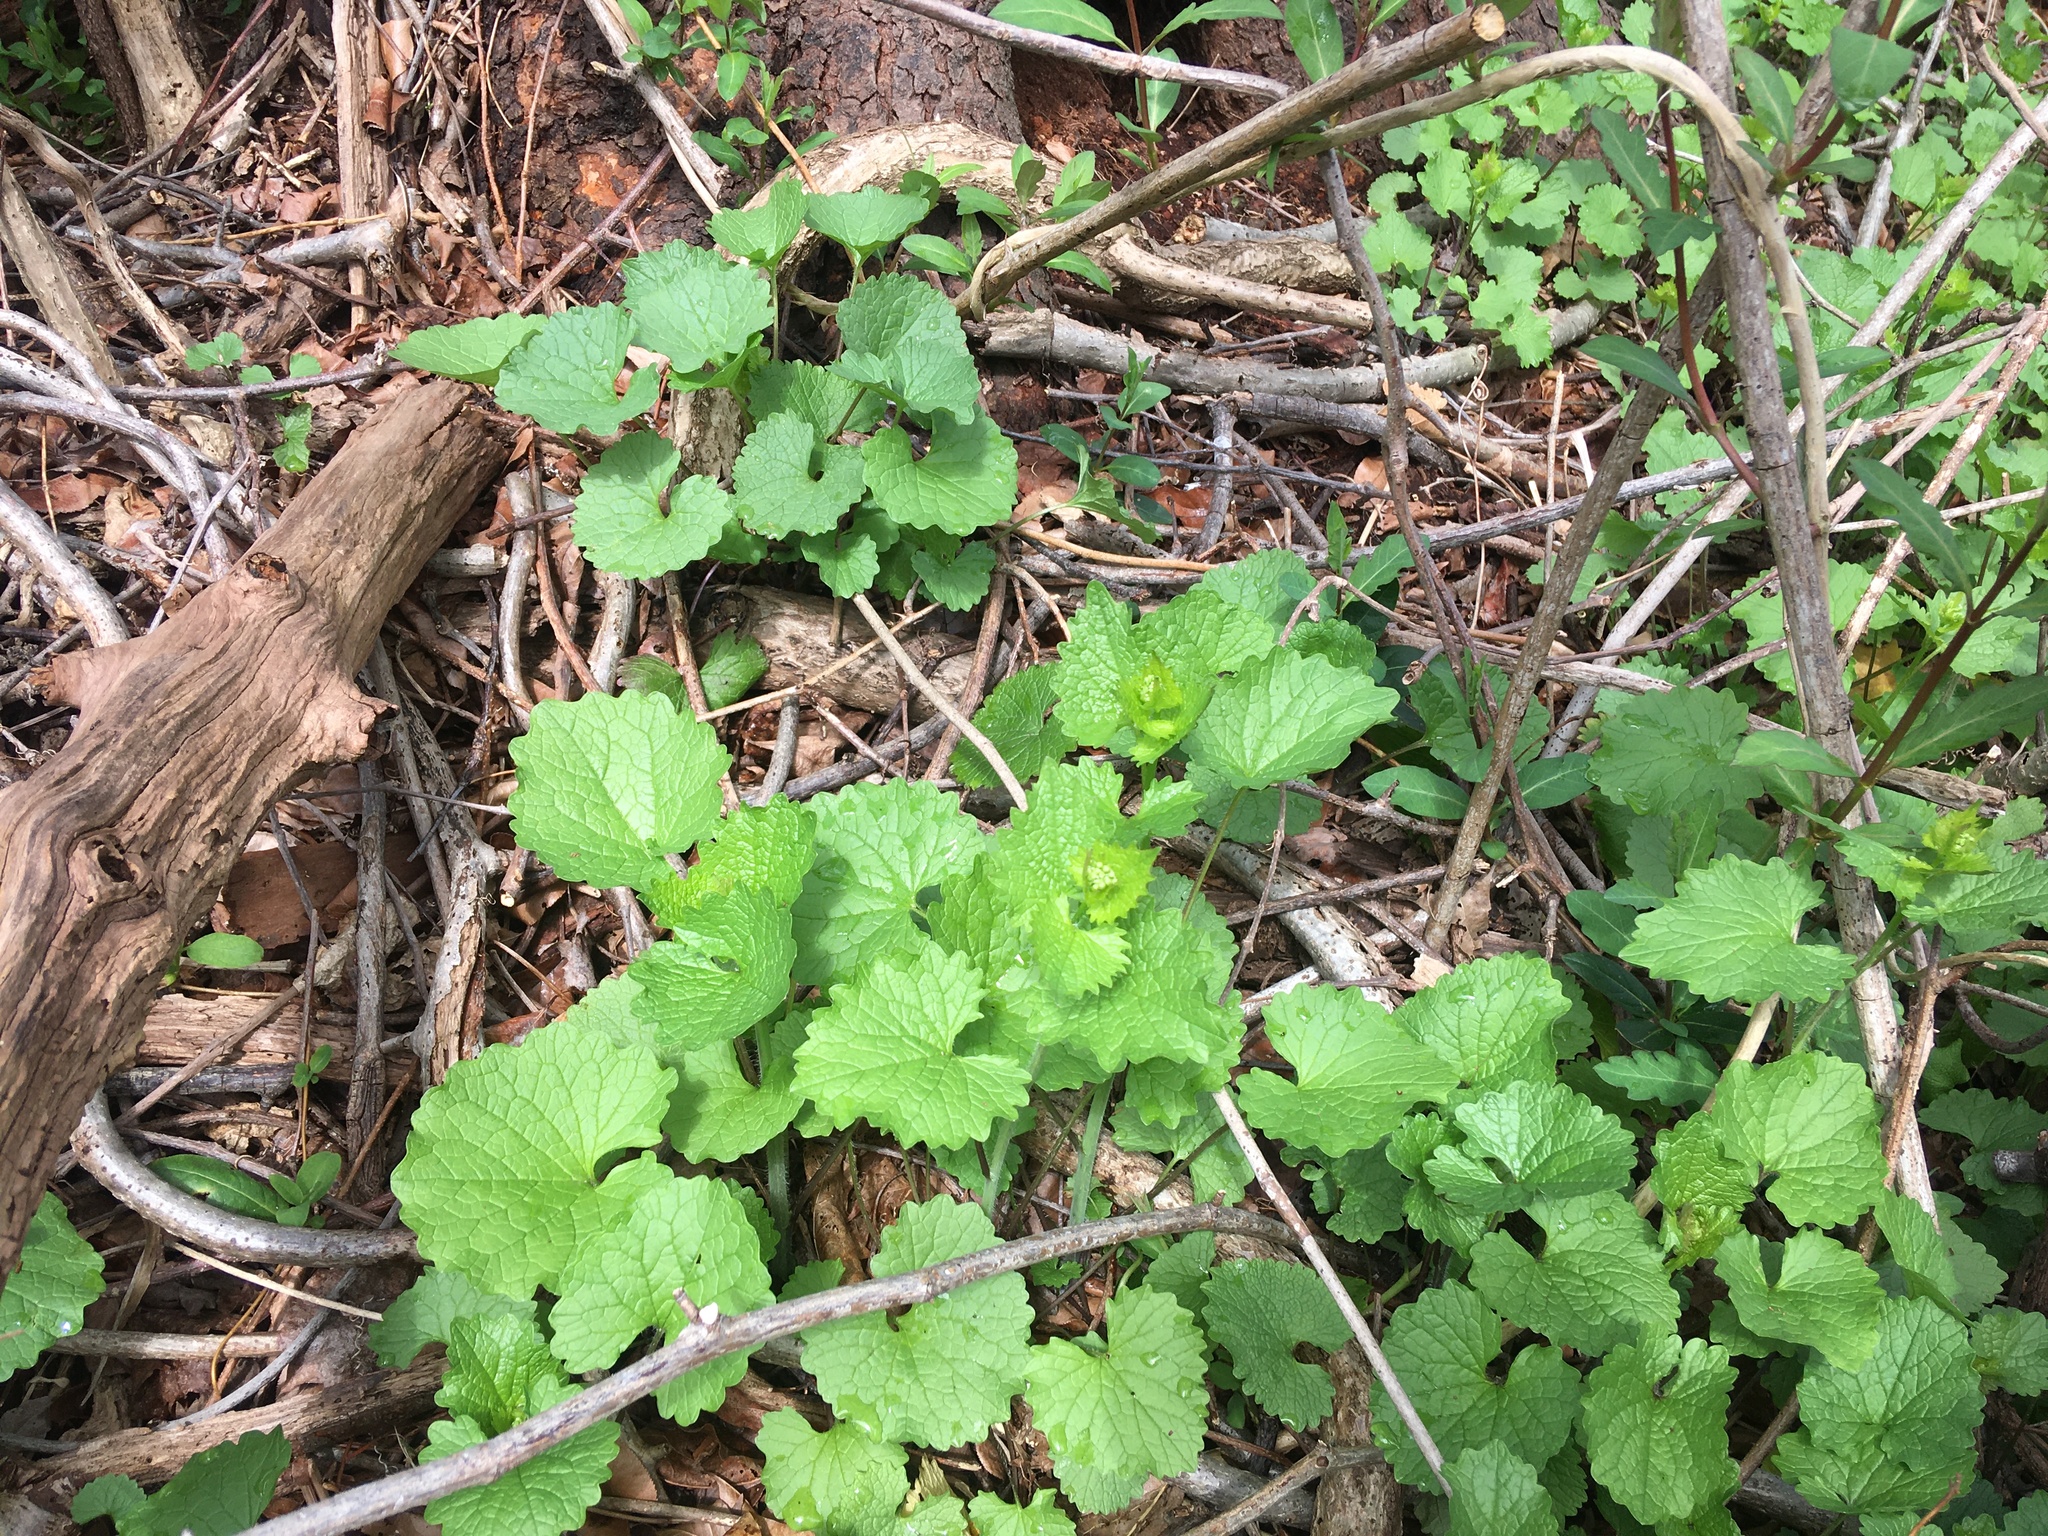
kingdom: Plantae
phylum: Tracheophyta
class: Magnoliopsida
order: Brassicales
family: Brassicaceae
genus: Alliaria
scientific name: Alliaria petiolata
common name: Garlic mustard
